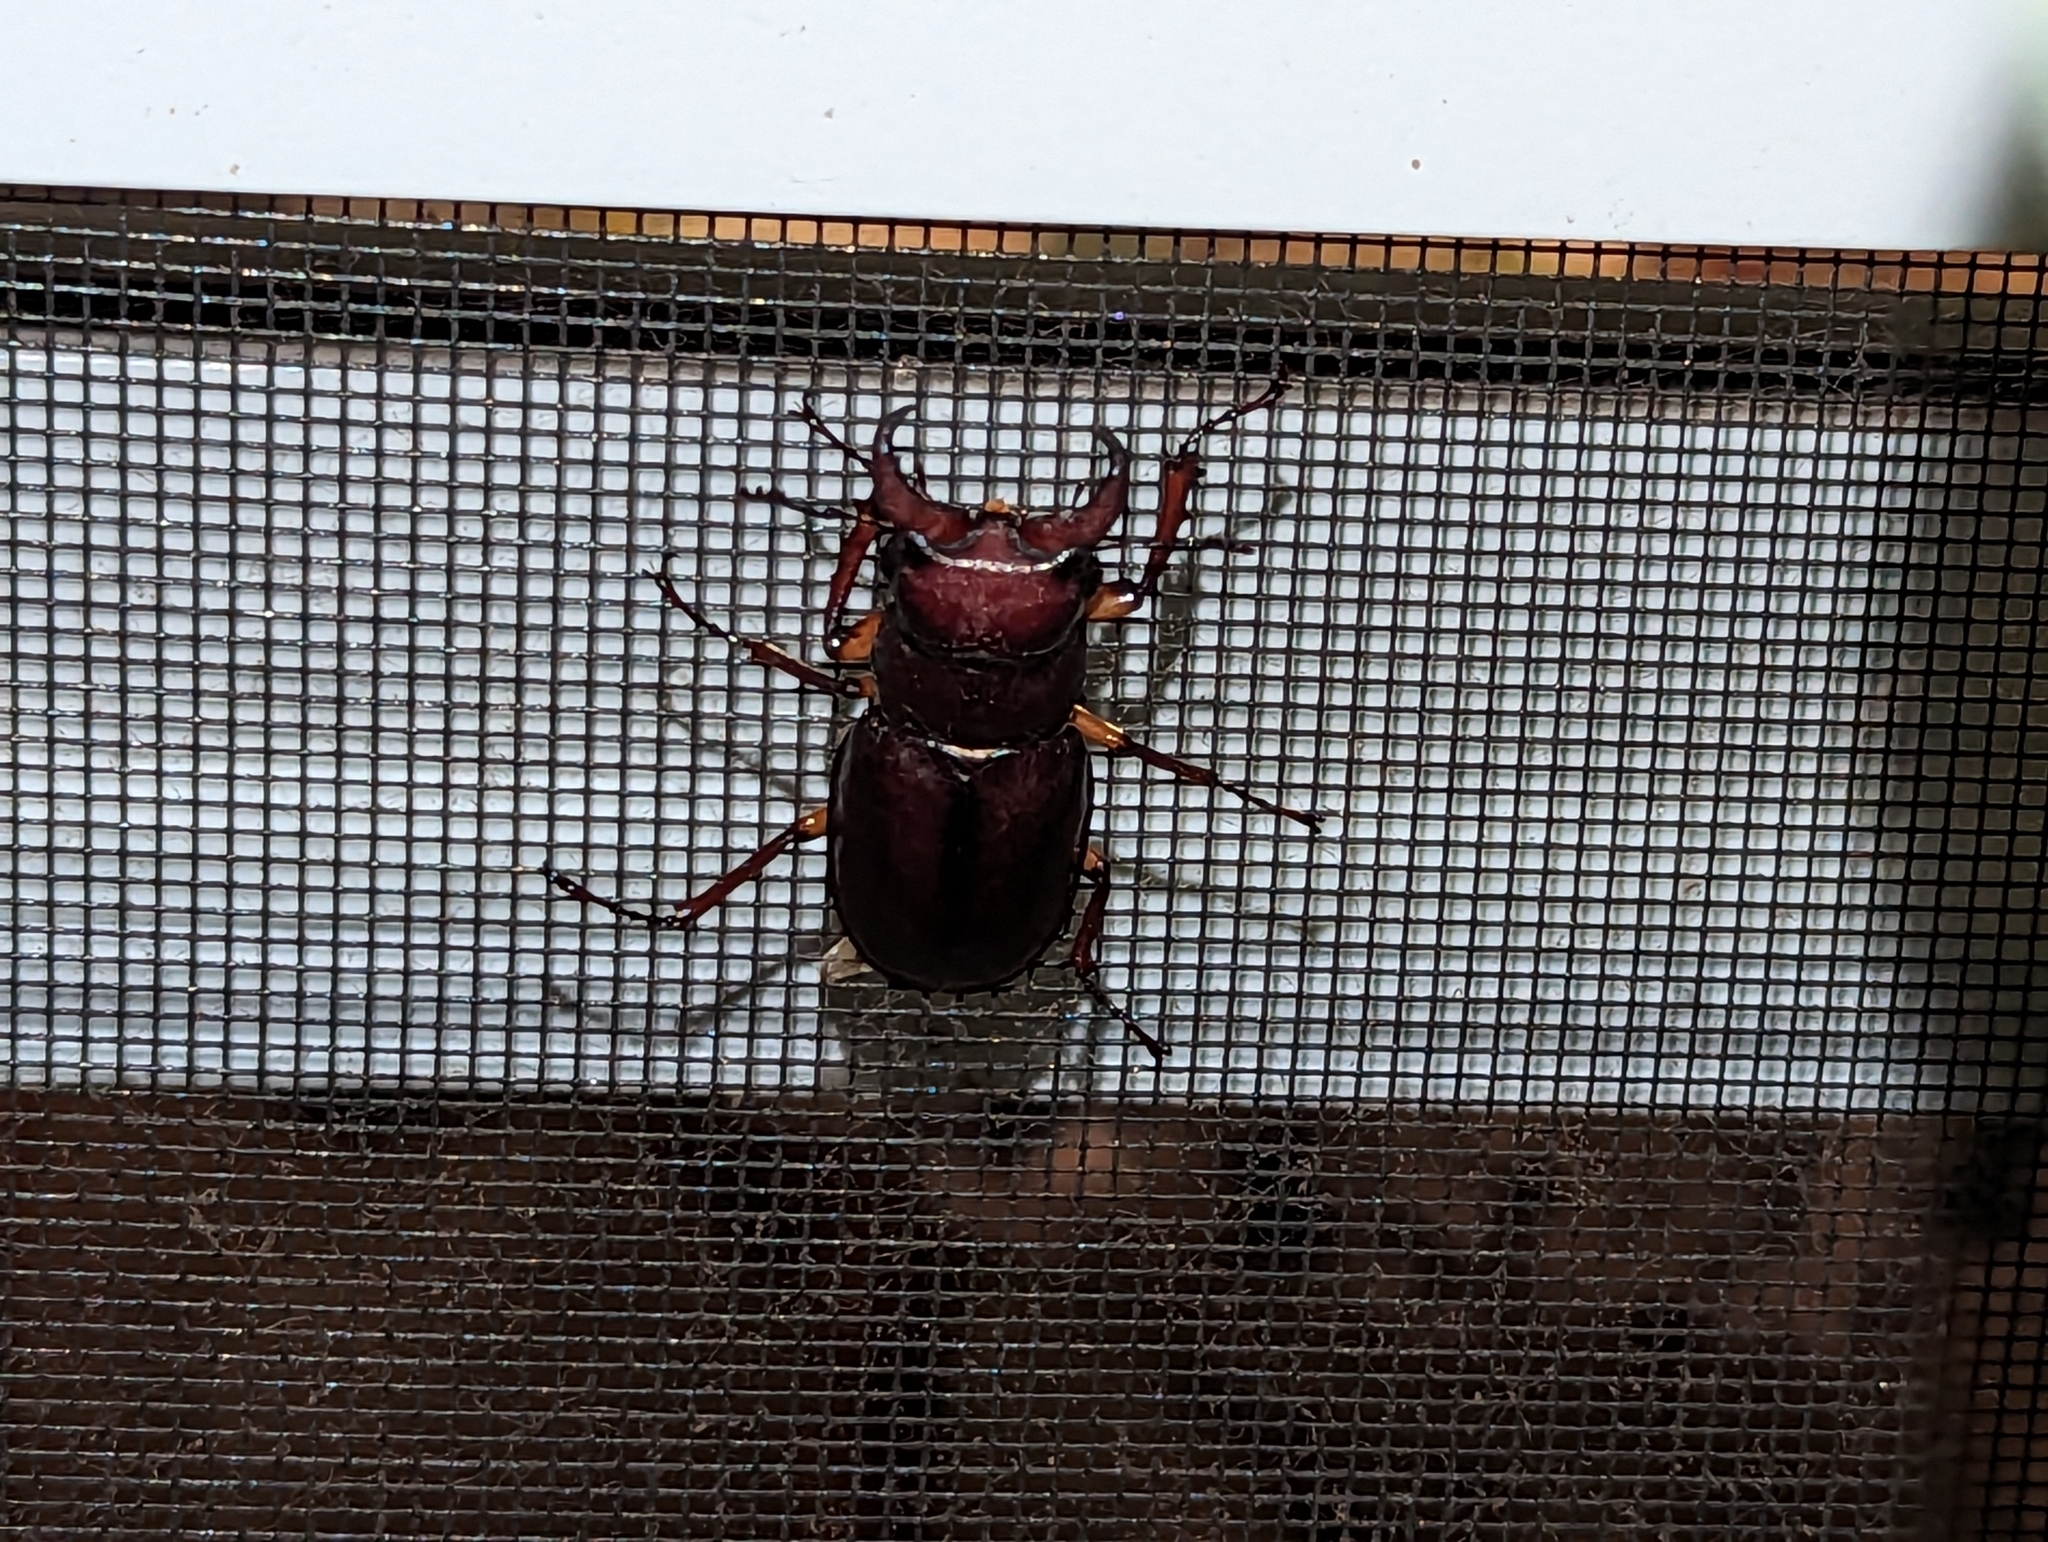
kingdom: Animalia
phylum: Arthropoda
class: Insecta
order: Coleoptera
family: Lucanidae
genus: Lucanus
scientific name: Lucanus capreolus
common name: Stag beetle
